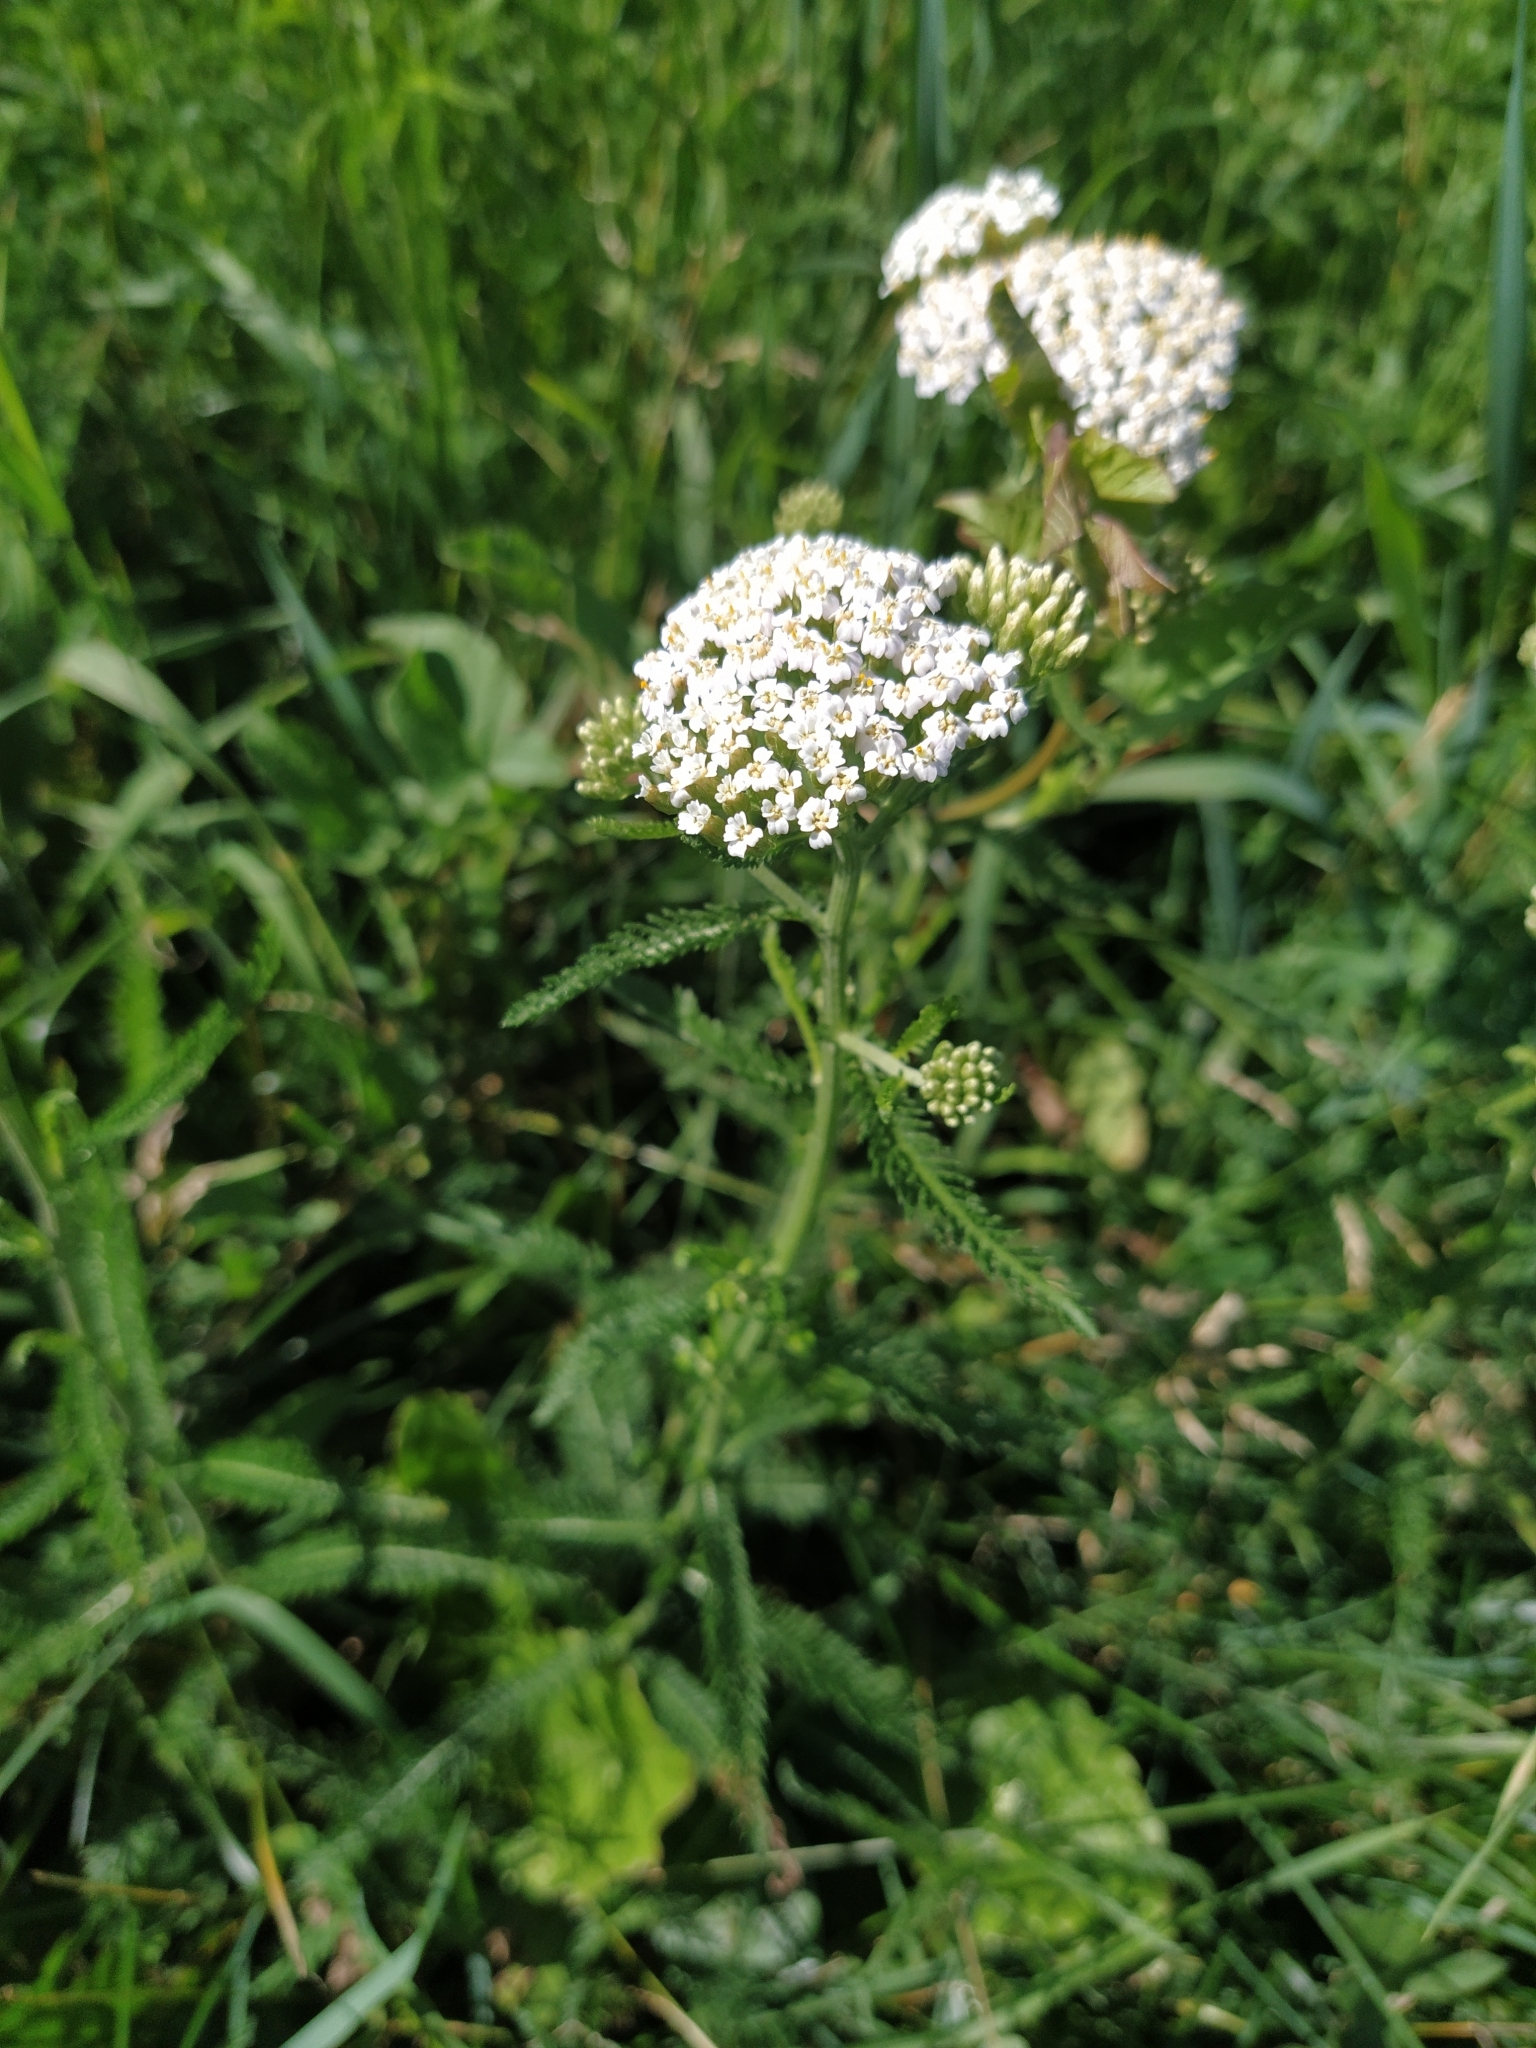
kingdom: Plantae
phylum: Tracheophyta
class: Magnoliopsida
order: Asterales
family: Asteraceae
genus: Achillea
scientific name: Achillea millefolium
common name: Yarrow
